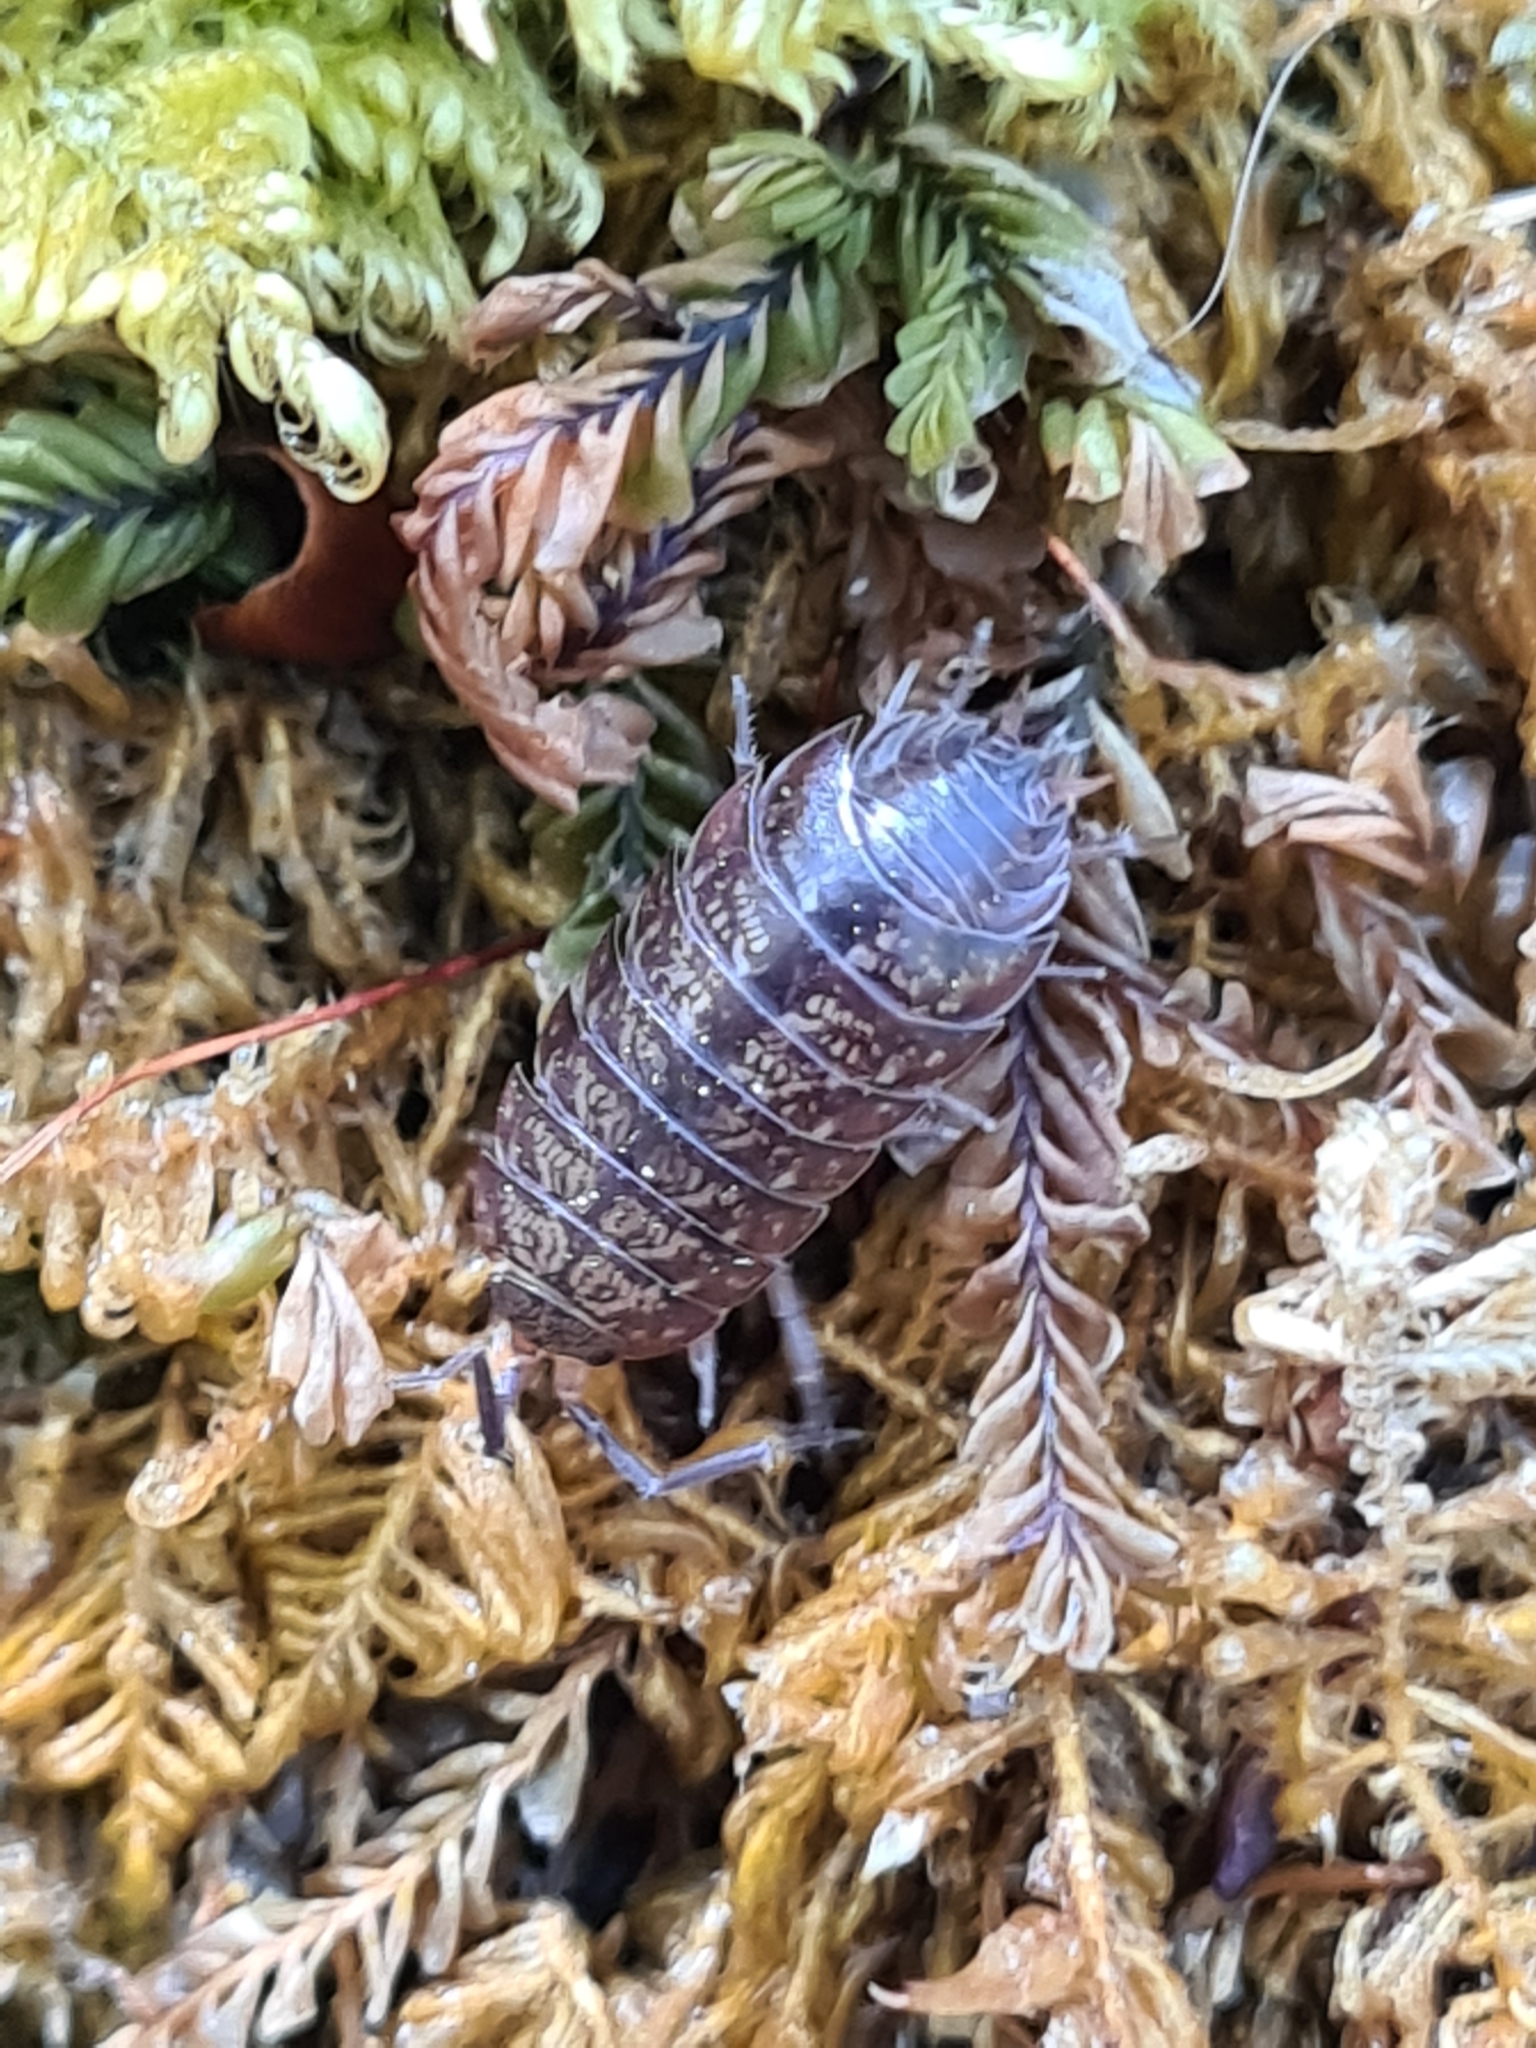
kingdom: Animalia
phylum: Arthropoda
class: Malacostraca
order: Isopoda
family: Agnaridae
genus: Protracheoniscus
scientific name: Protracheoniscus politus
